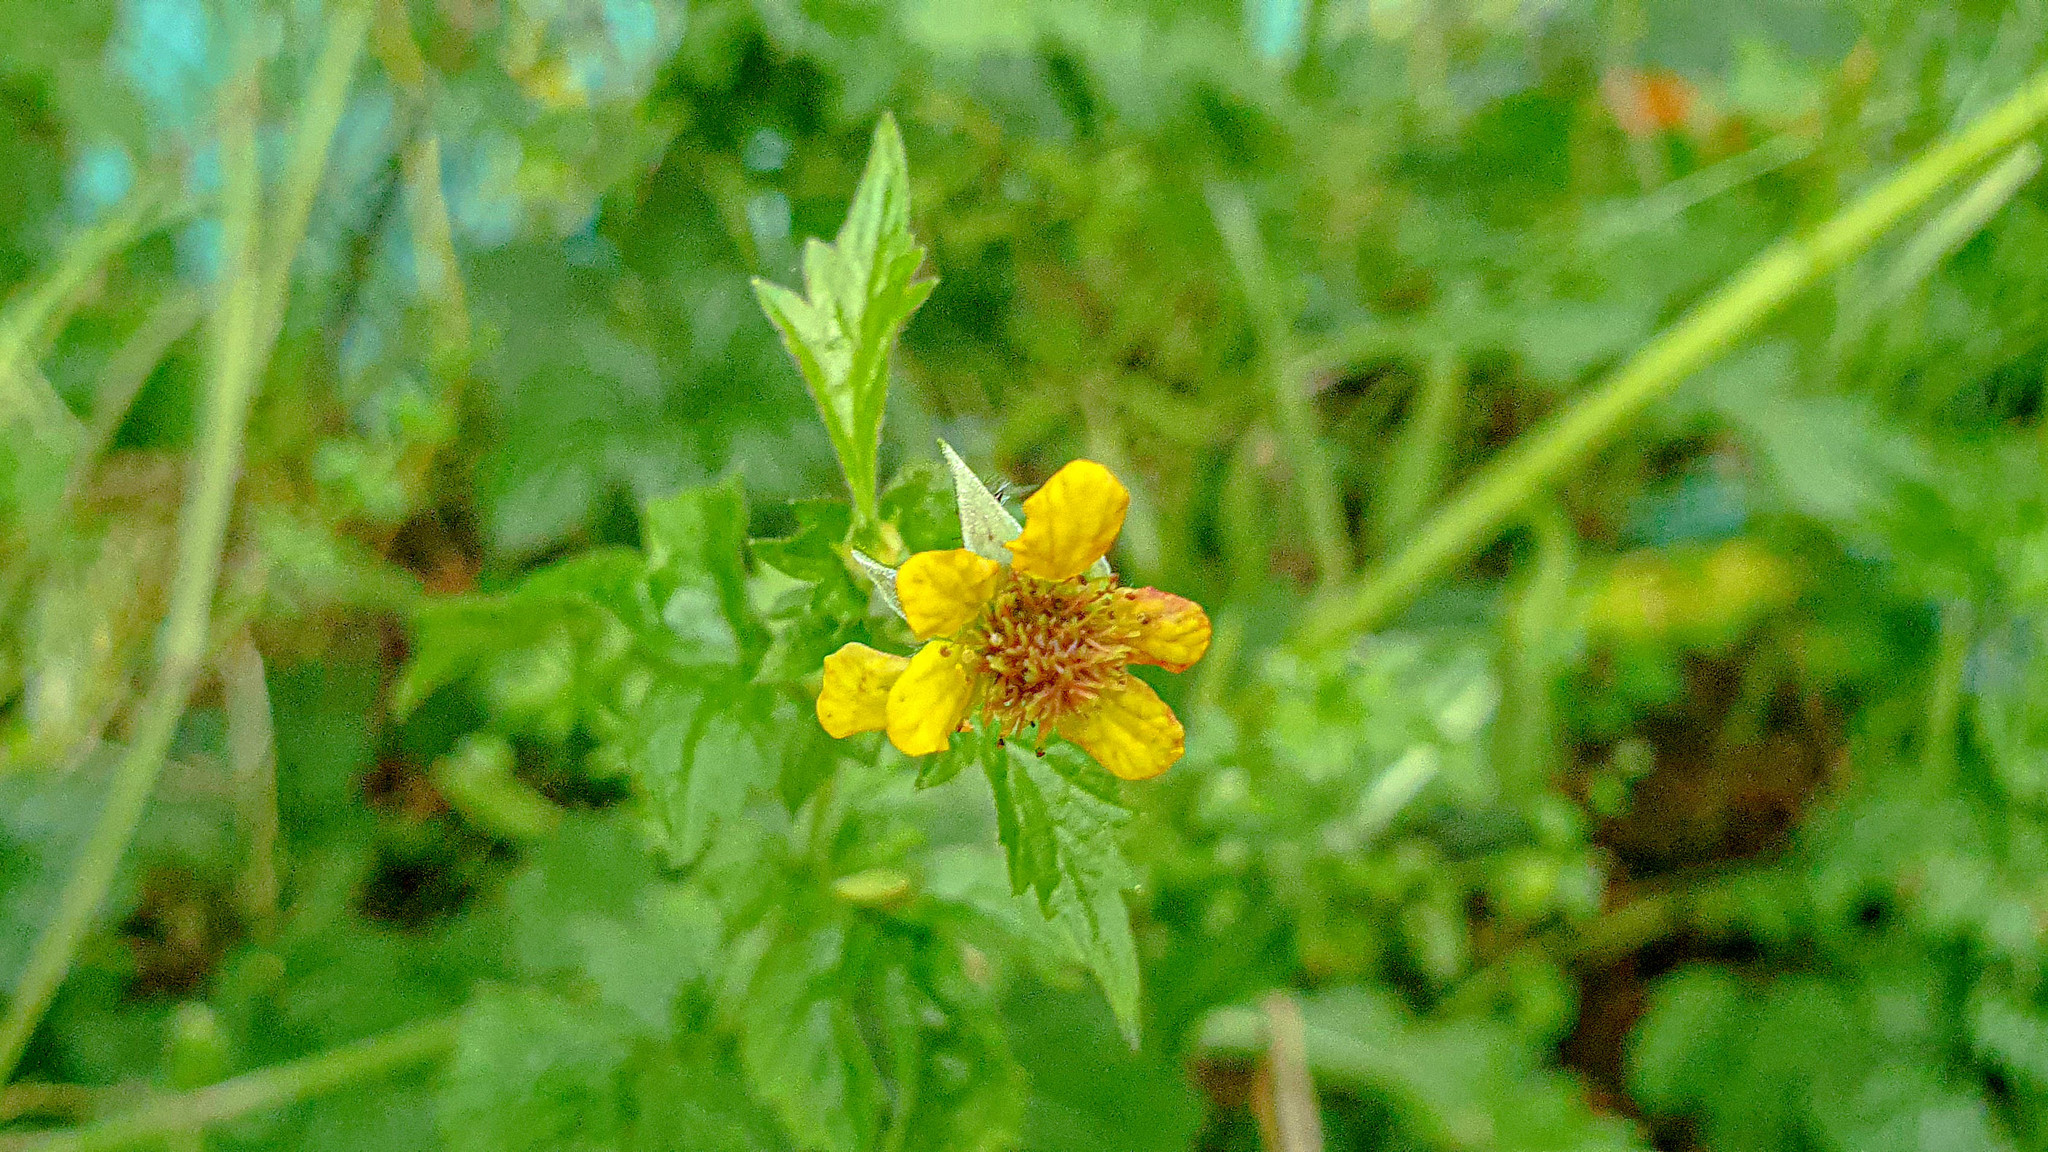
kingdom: Plantae
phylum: Tracheophyta
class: Magnoliopsida
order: Rosales
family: Rosaceae
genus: Geum
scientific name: Geum urbanum
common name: Wood avens
